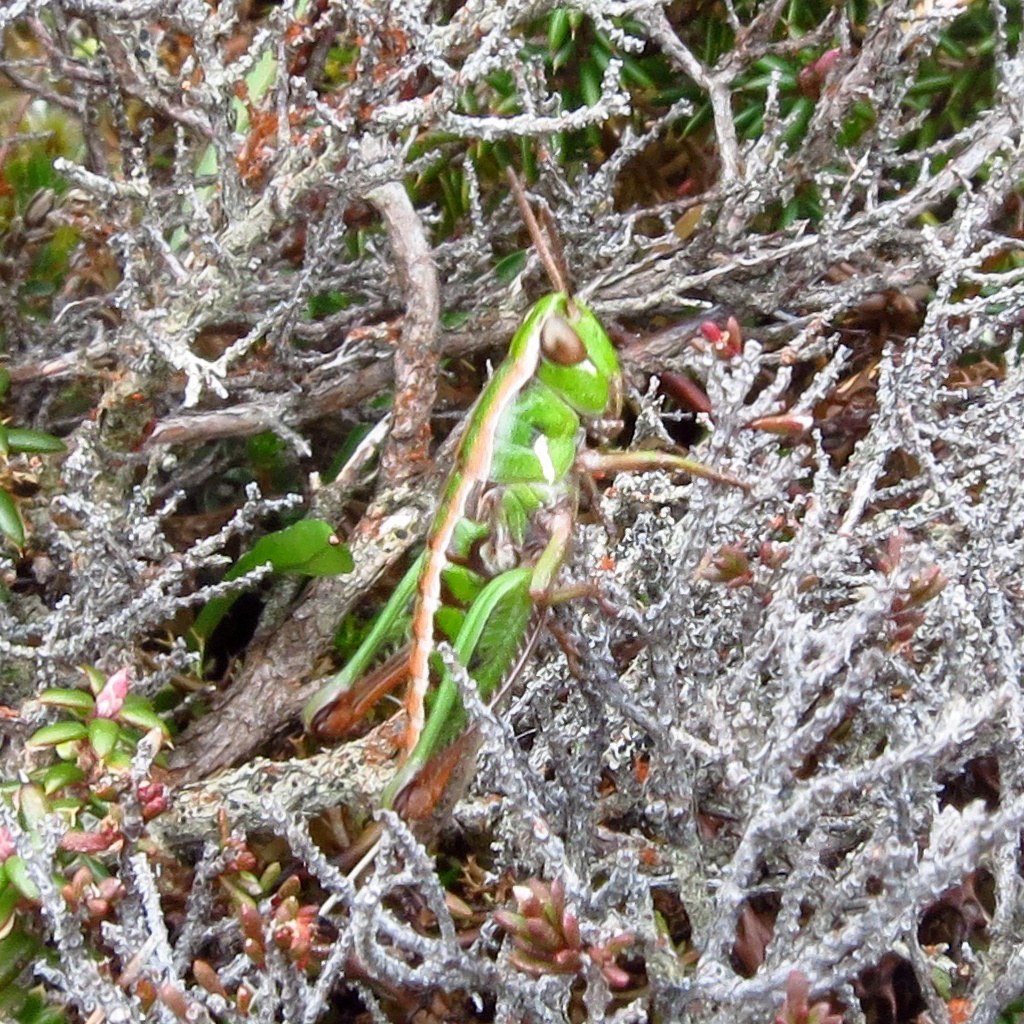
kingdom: Animalia
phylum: Arthropoda
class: Insecta
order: Orthoptera
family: Acrididae
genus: Russalpia
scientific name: Russalpia albertisi
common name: Tassie hopper
